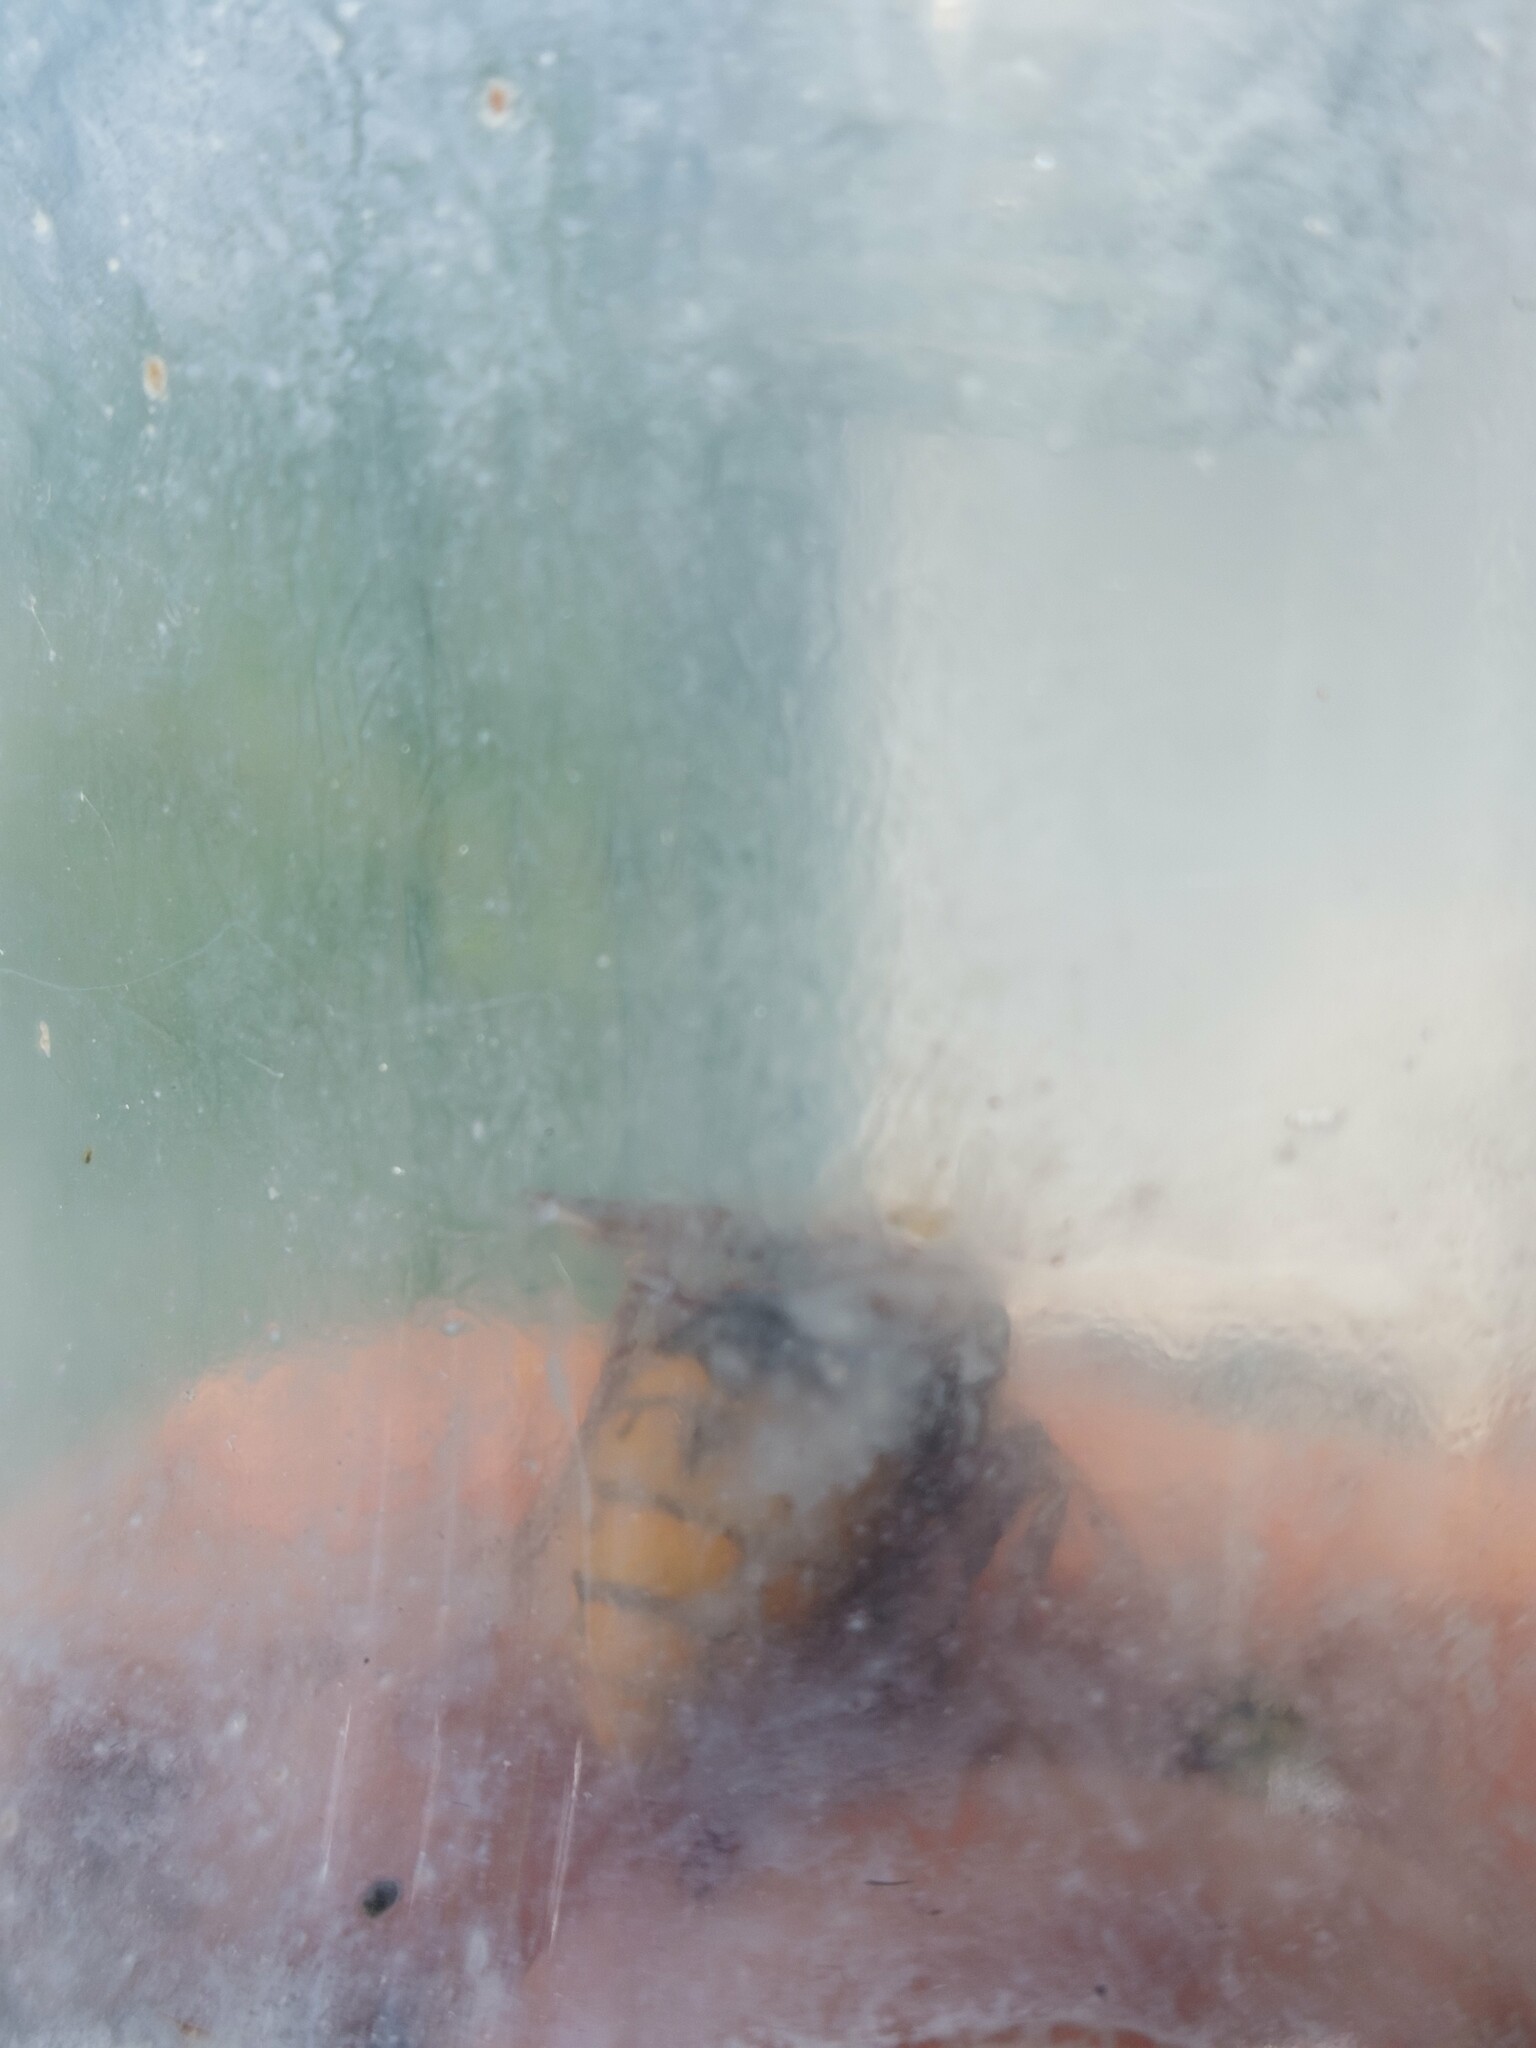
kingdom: Animalia
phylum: Arthropoda
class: Insecta
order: Hymenoptera
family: Vespidae
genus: Vespa
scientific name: Vespa crabro
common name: Hornet
